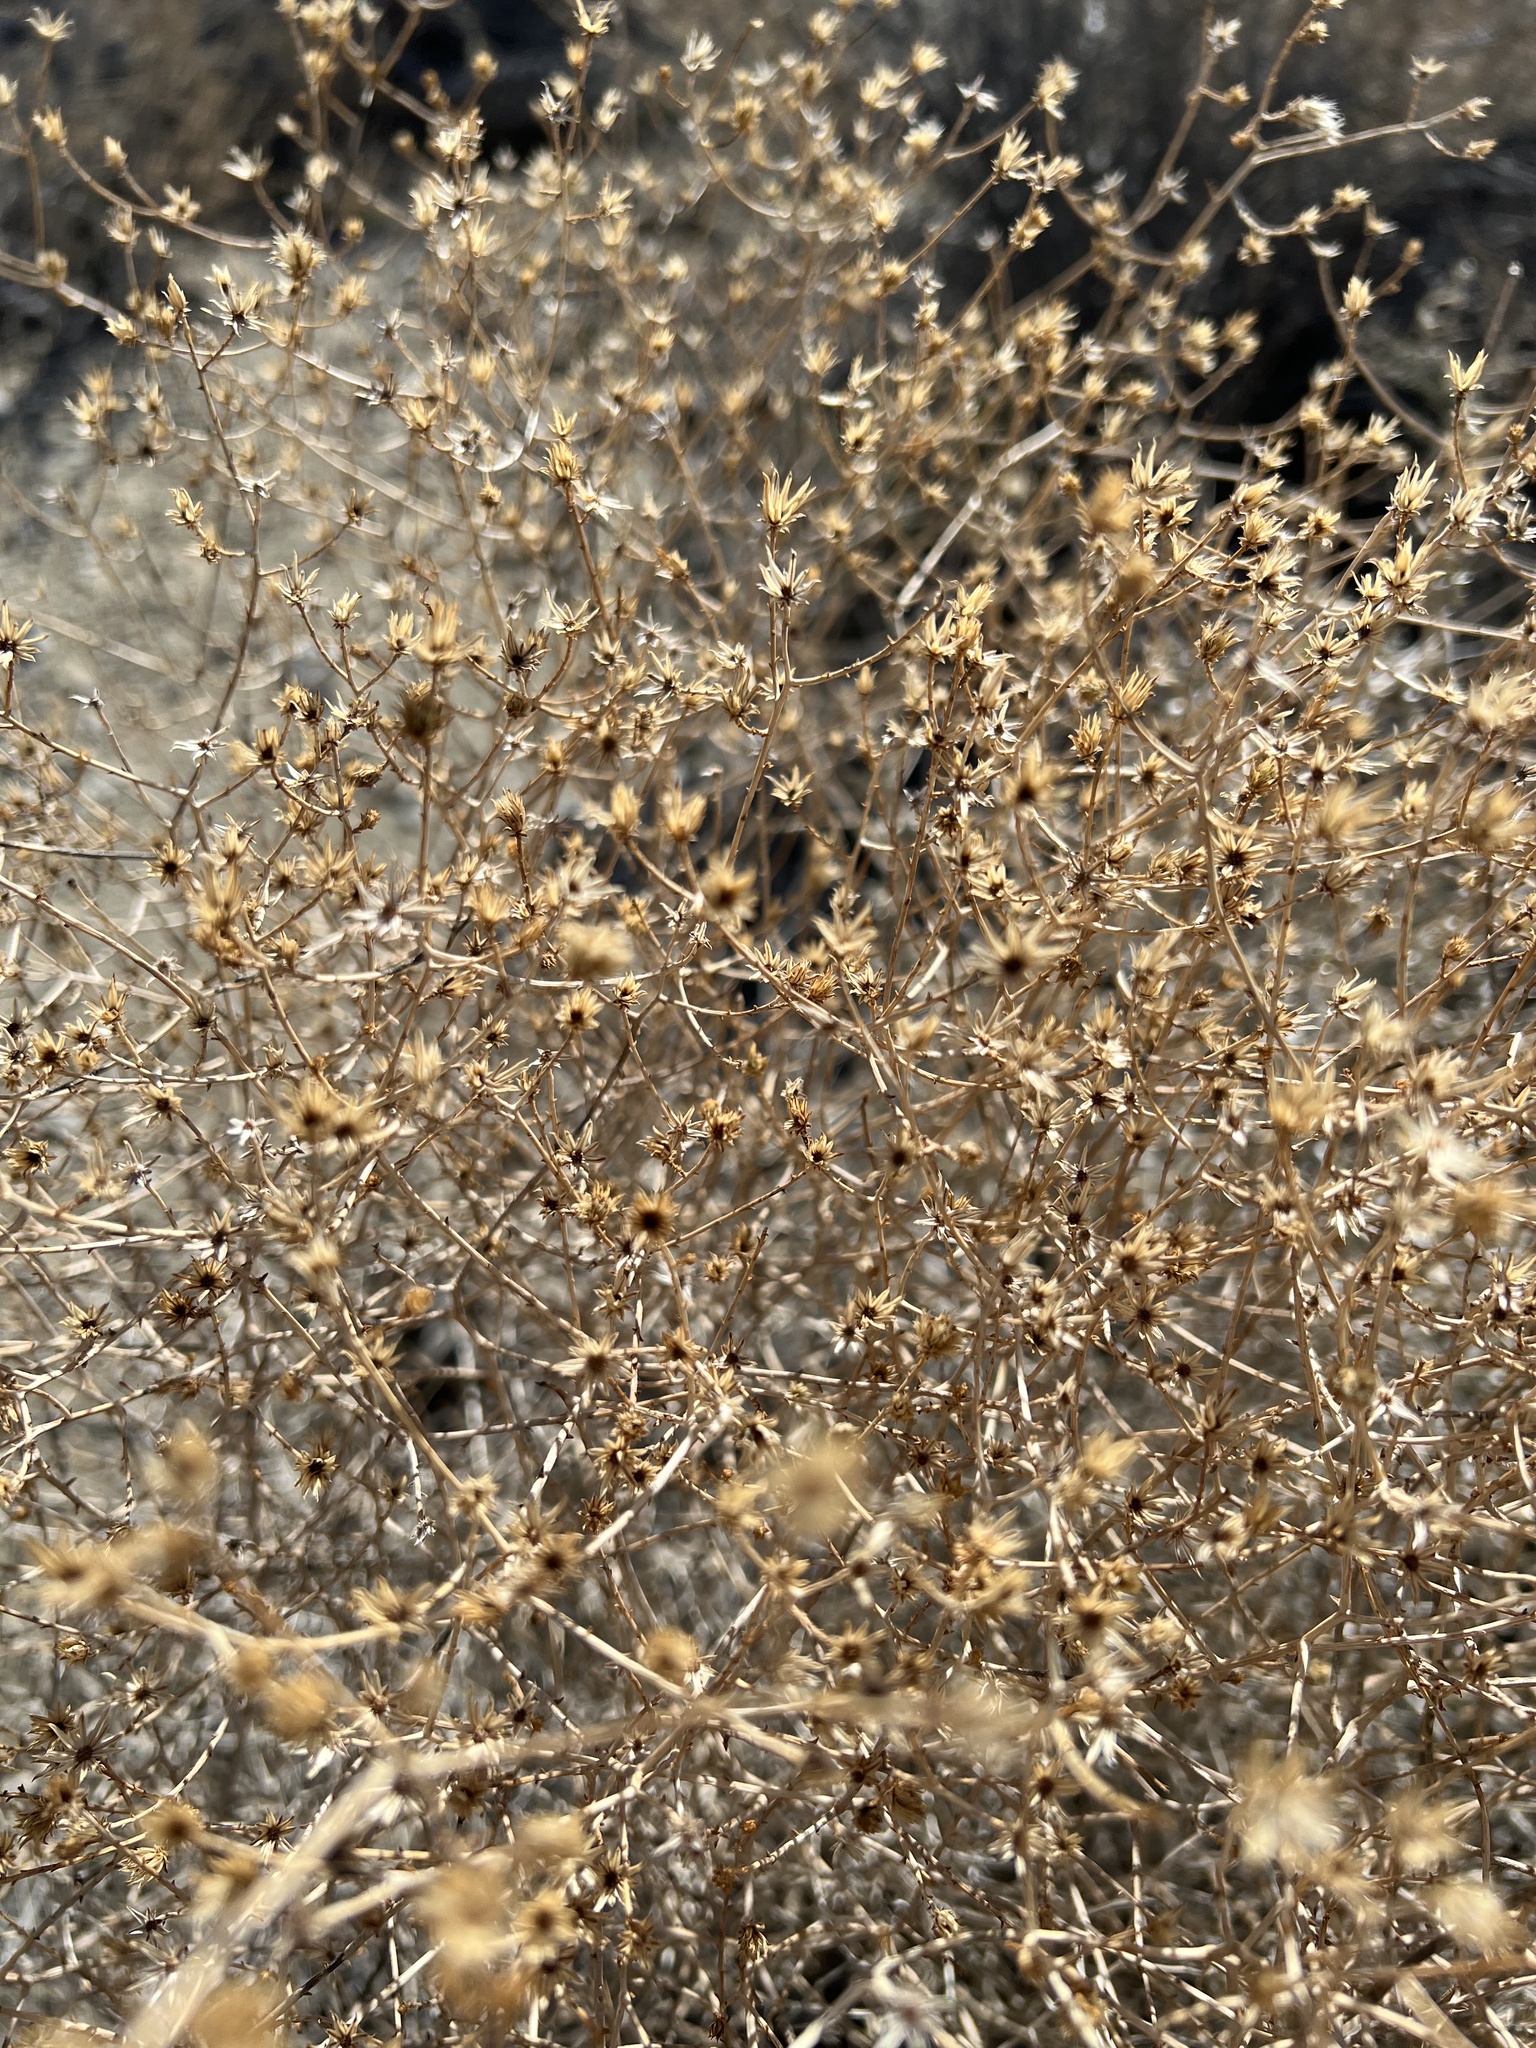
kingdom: Plantae
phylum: Tracheophyta
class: Magnoliopsida
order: Asterales
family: Asteraceae
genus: Leucosyris
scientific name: Leucosyris carnosa
